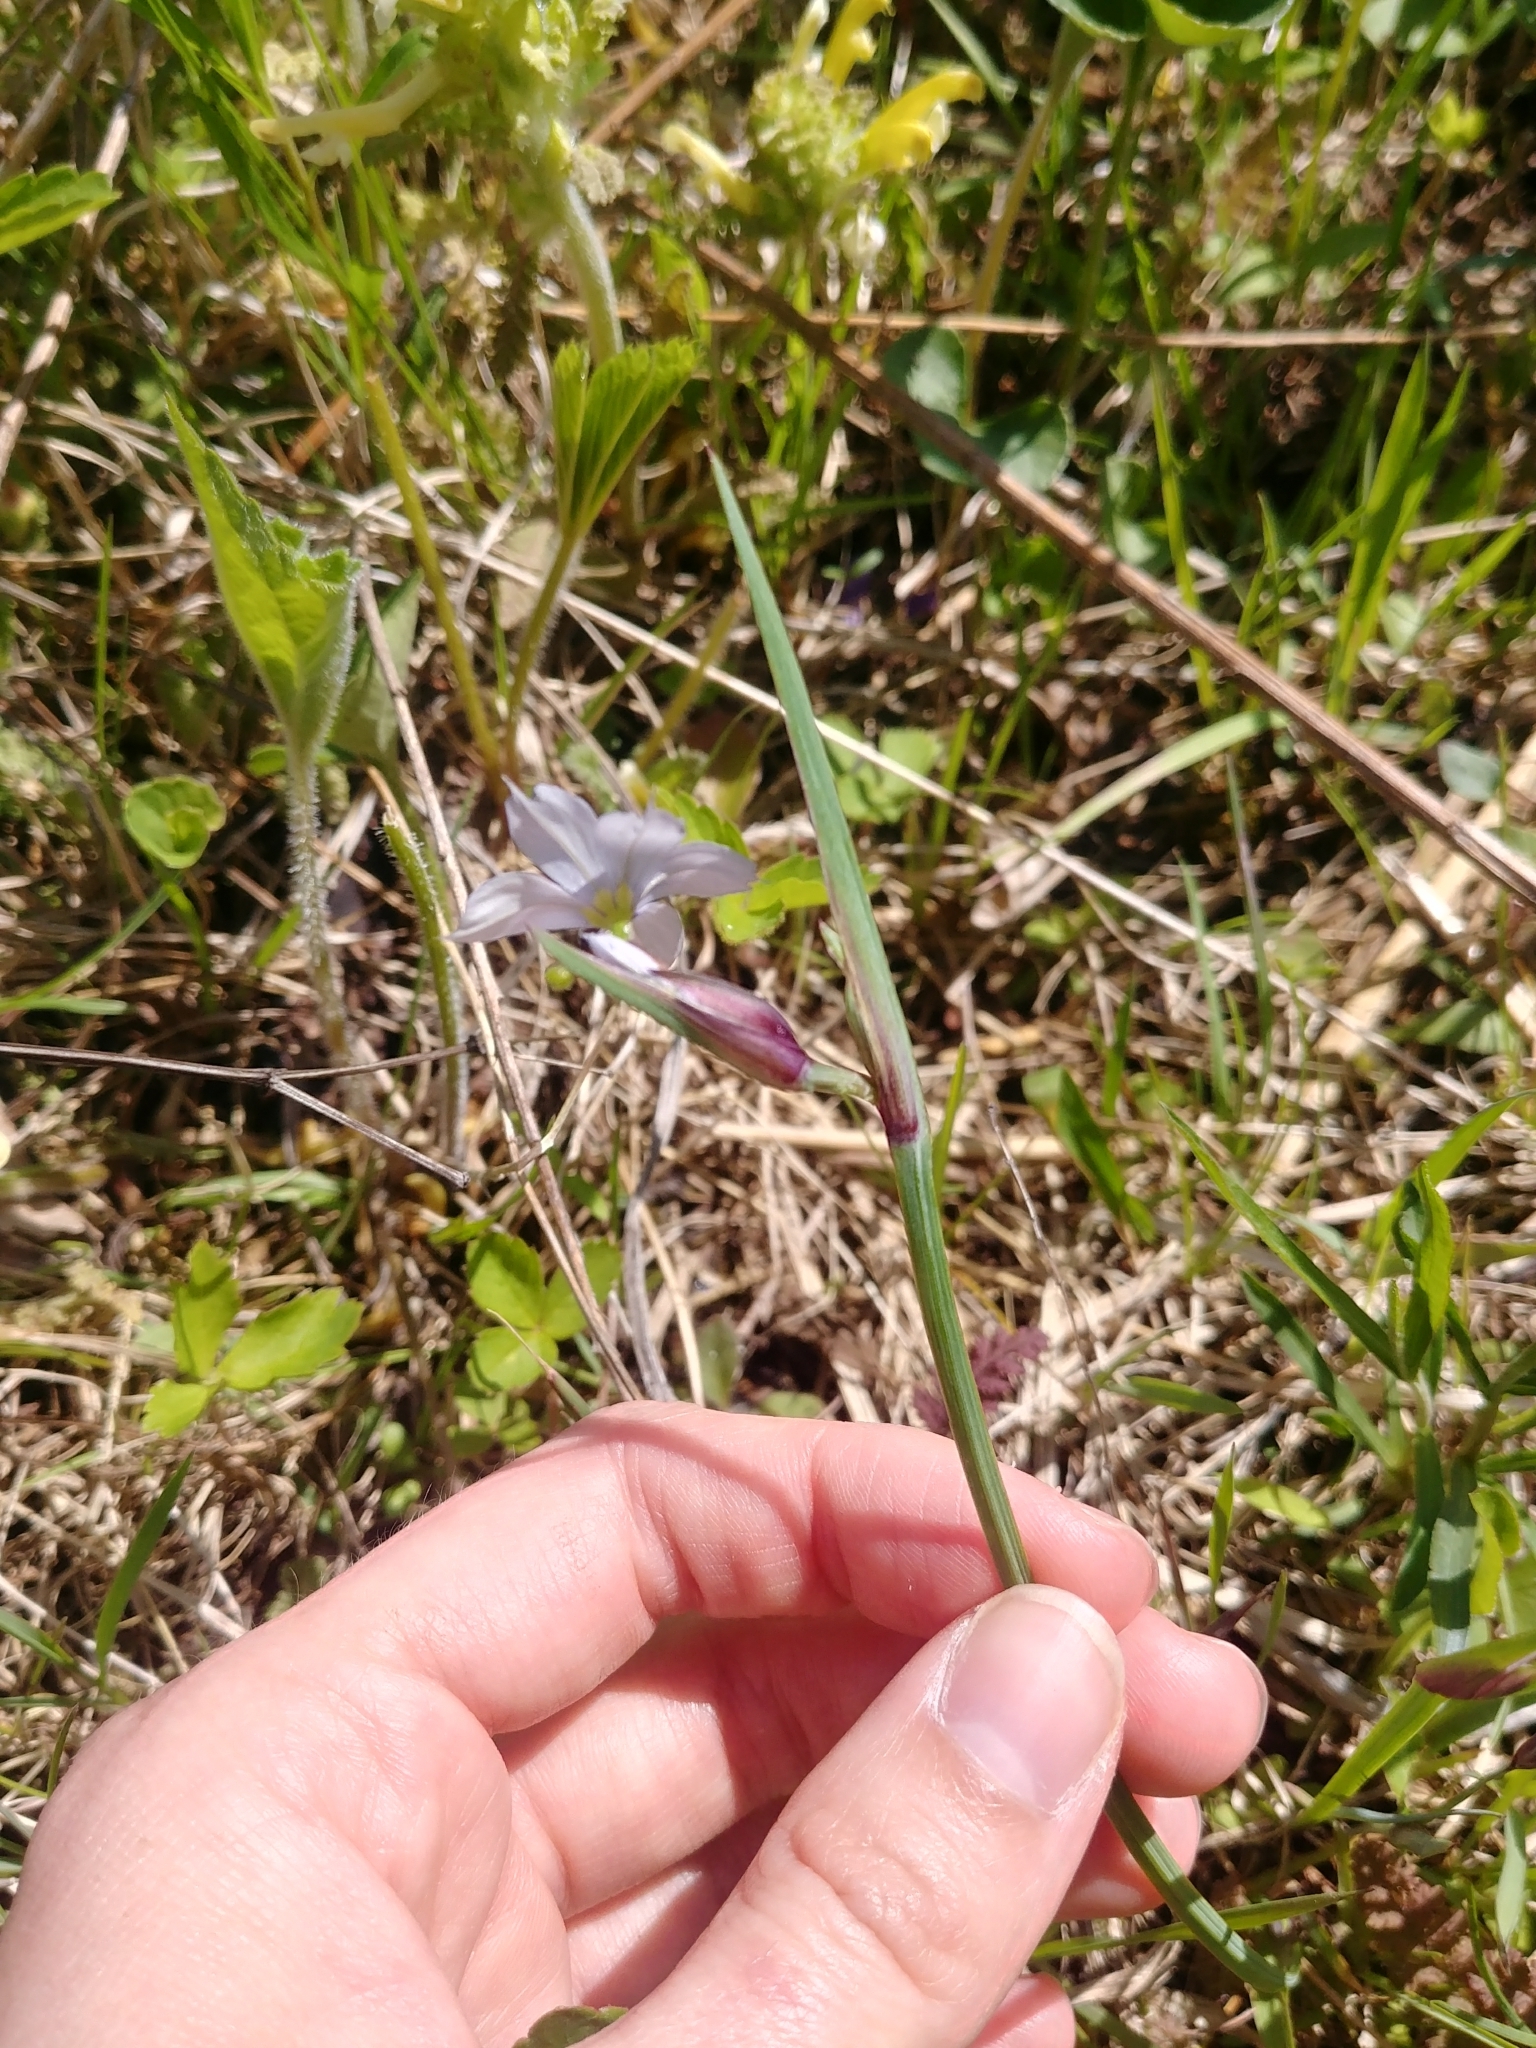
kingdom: Plantae
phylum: Tracheophyta
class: Liliopsida
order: Asparagales
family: Iridaceae
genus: Sisyrinchium
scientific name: Sisyrinchium albidum
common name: Pale blue-eyed-grass
